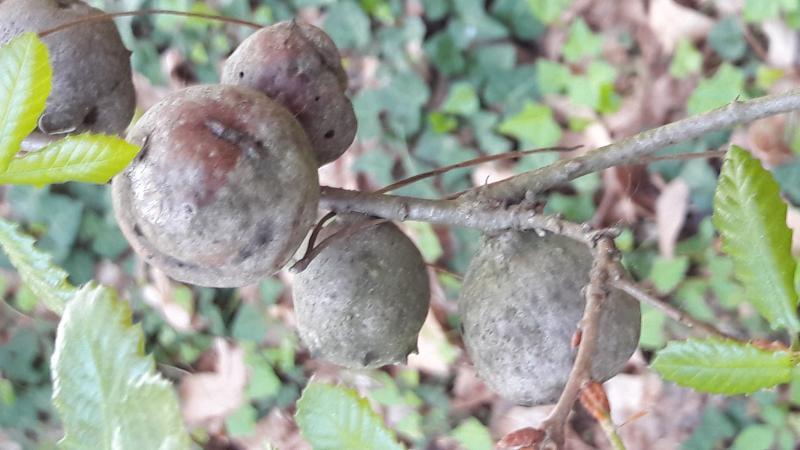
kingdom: Animalia
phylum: Arthropoda
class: Insecta
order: Hymenoptera
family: Cynipidae
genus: Andricus
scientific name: Andricus quercustozae
